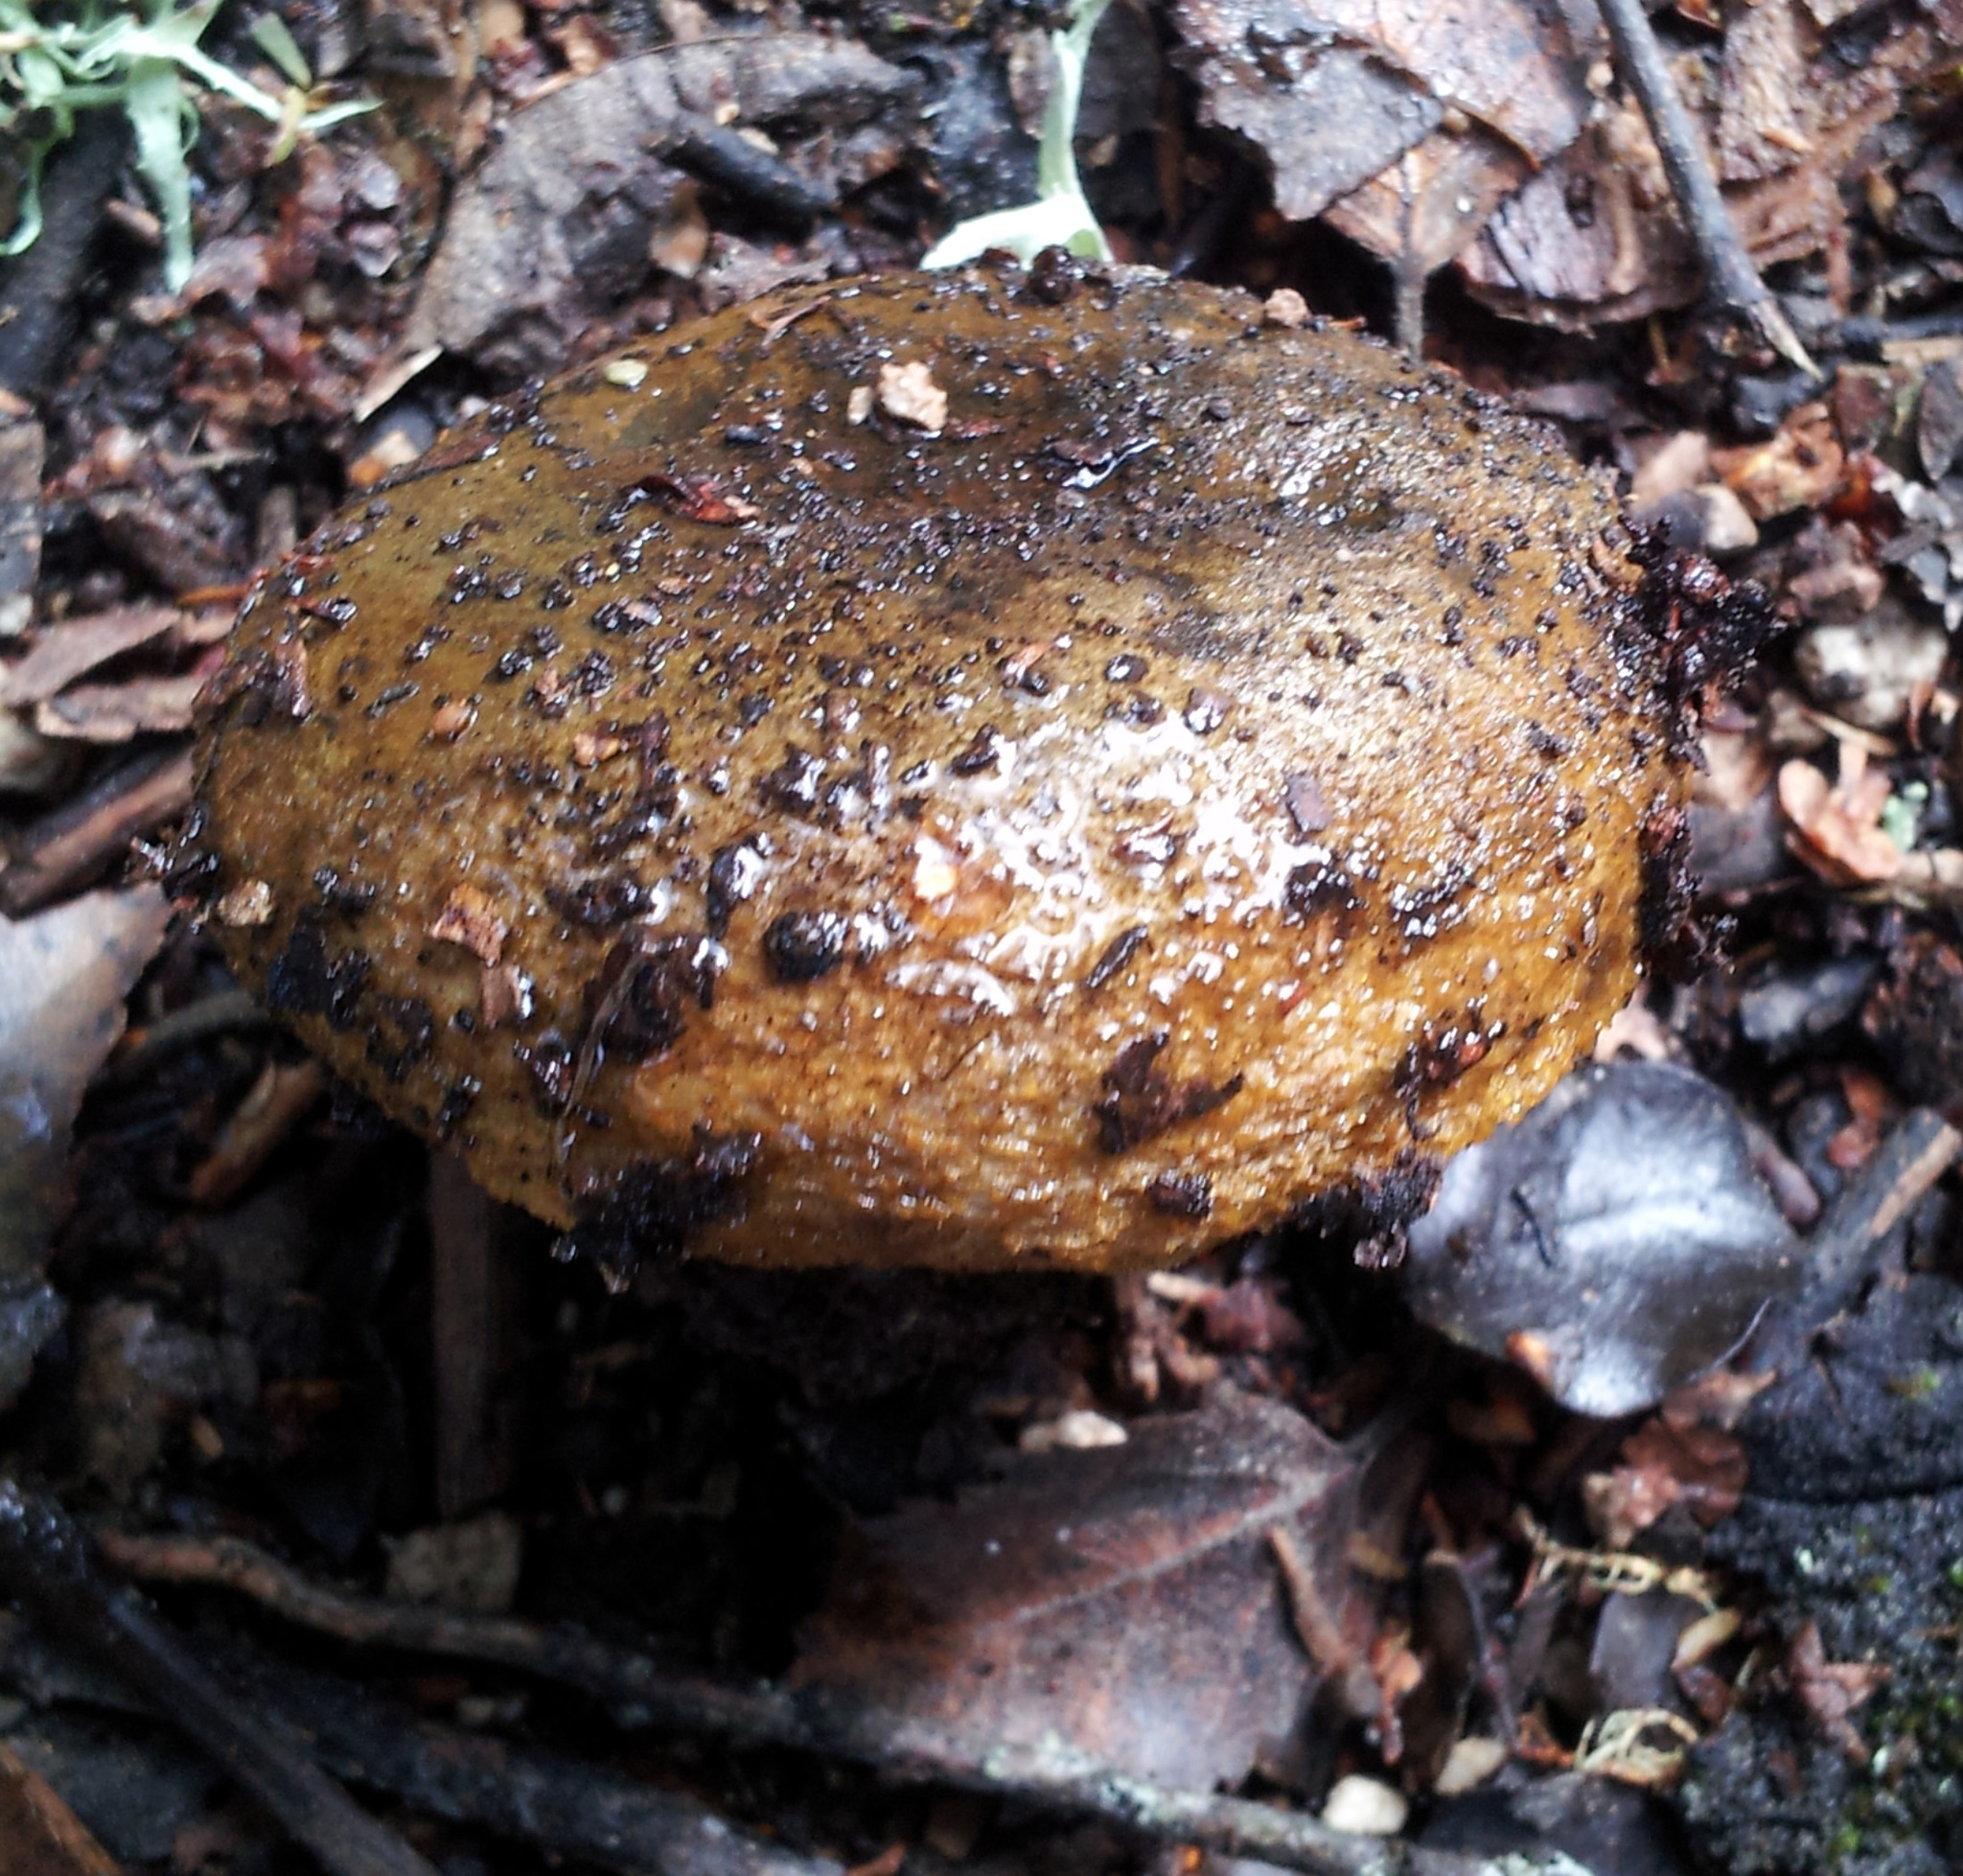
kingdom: Fungi
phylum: Basidiomycota
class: Agaricomycetes
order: Russulales
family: Russulaceae
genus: Lactarius
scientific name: Lactarius turpis
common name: Ugly milk-cap
